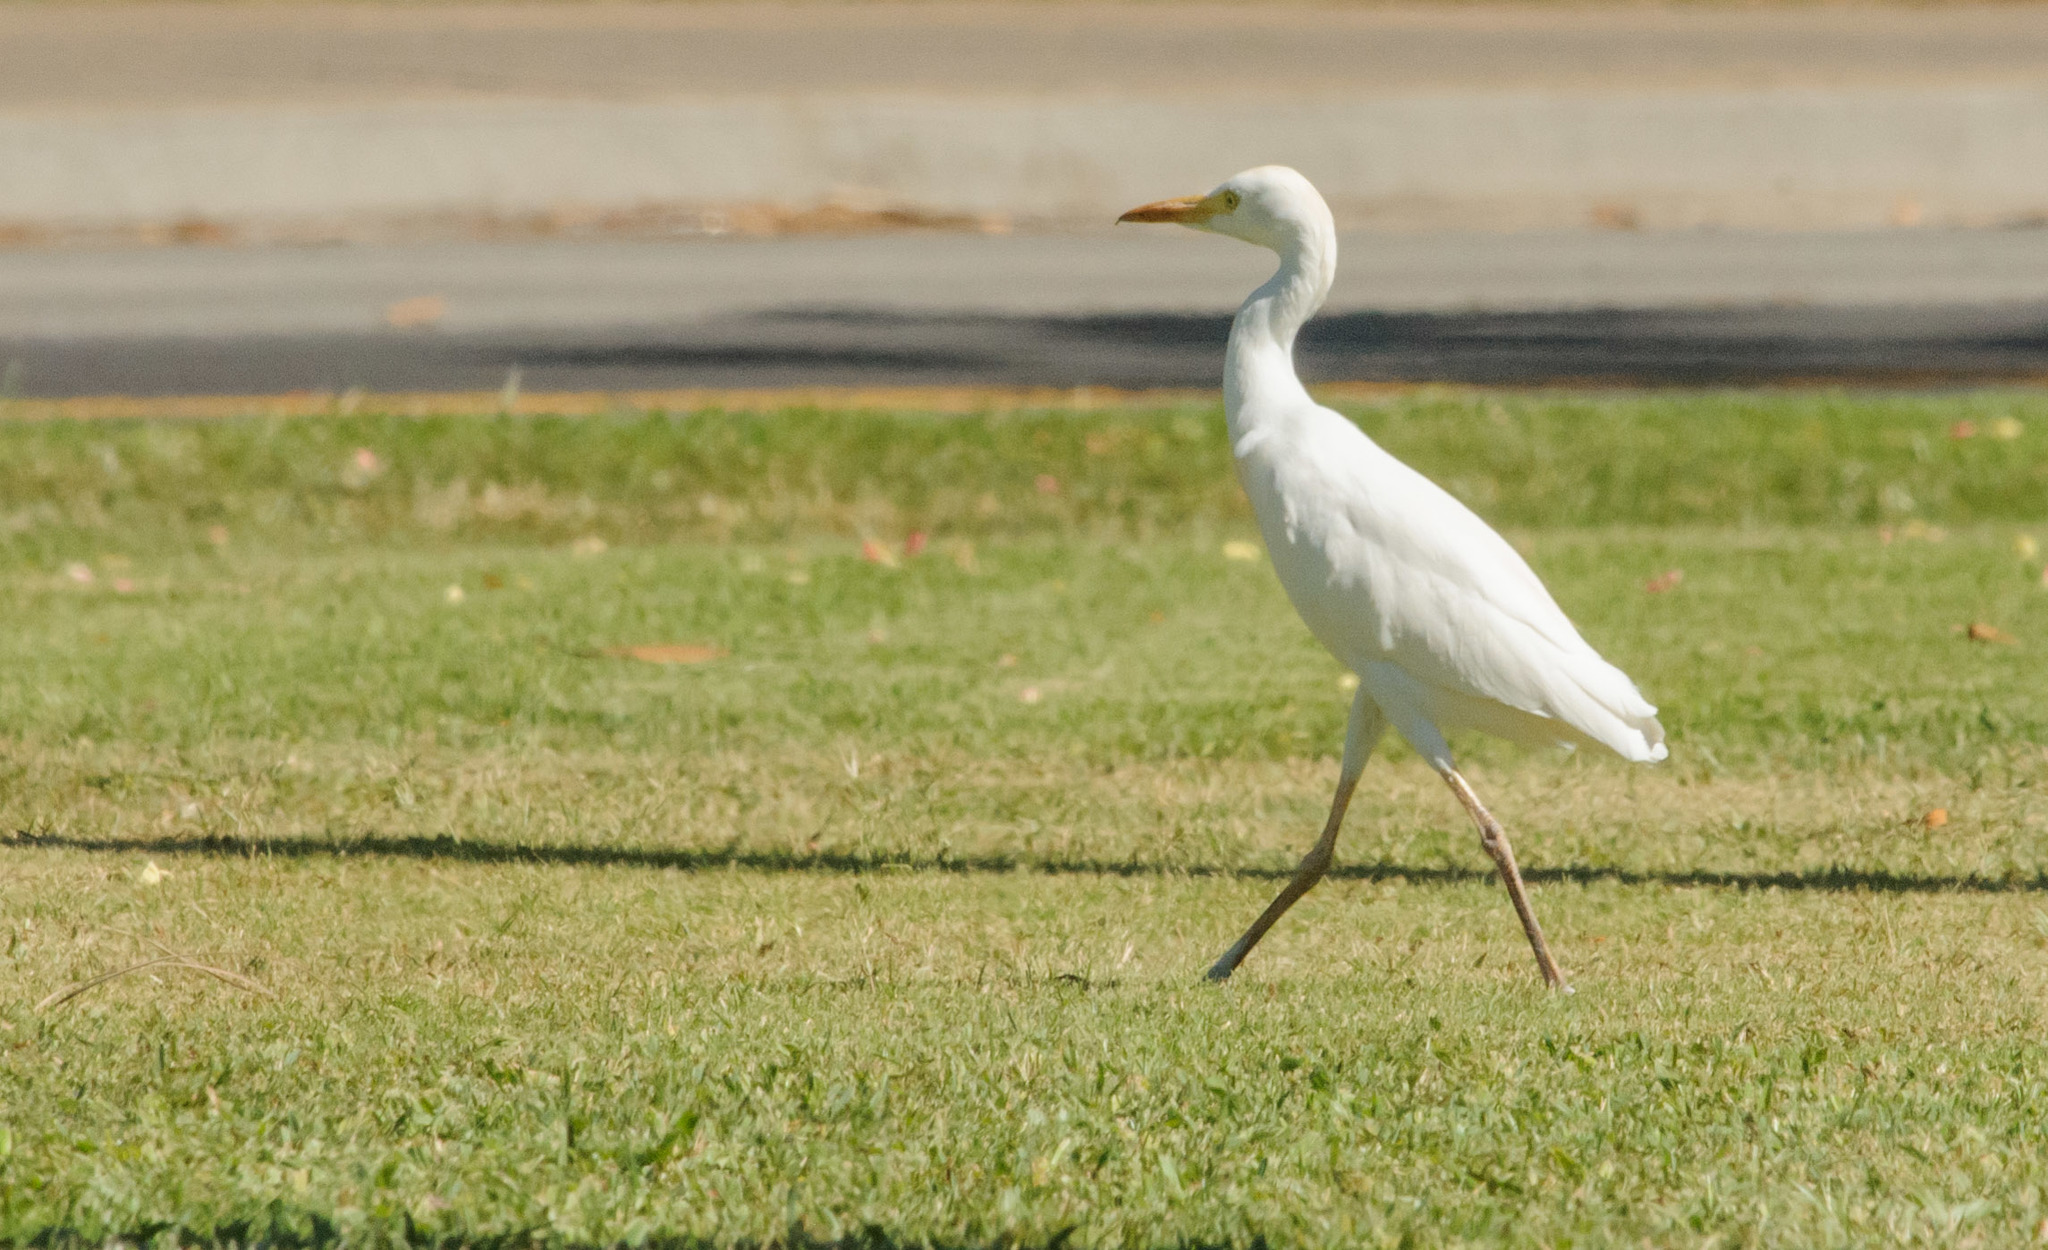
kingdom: Animalia
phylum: Chordata
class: Aves
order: Pelecaniformes
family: Ardeidae
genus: Bubulcus
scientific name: Bubulcus ibis
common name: Cattle egret
